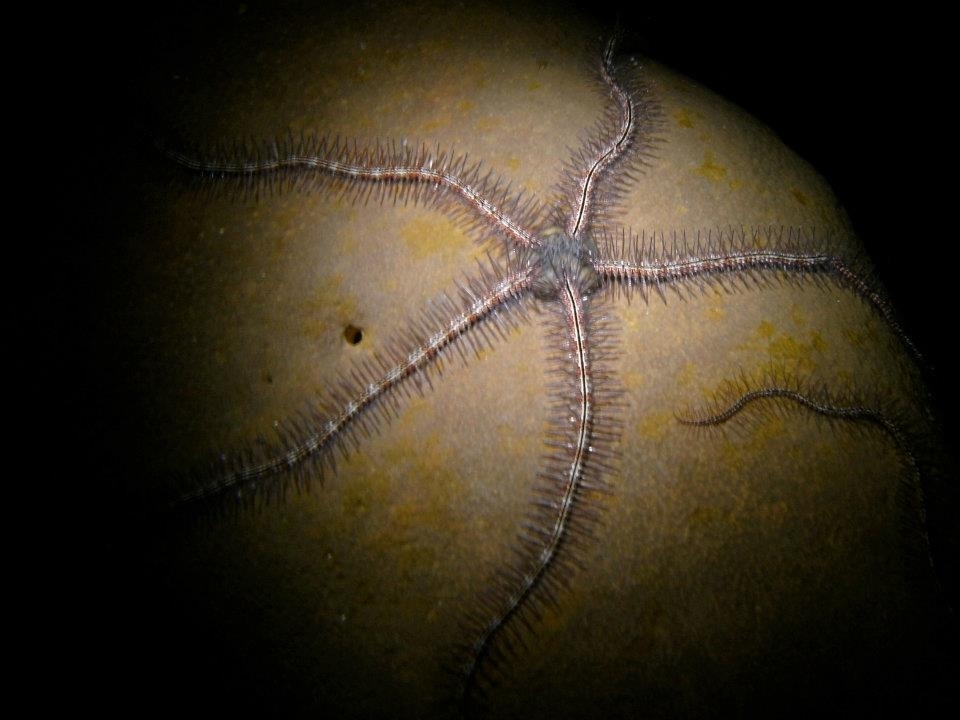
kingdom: Animalia
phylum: Echinodermata
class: Ophiuroidea
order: Amphilepidida
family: Ophiotrichidae
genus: Ophiothrix
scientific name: Ophiothrix suensonii
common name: Sponge brittle star
